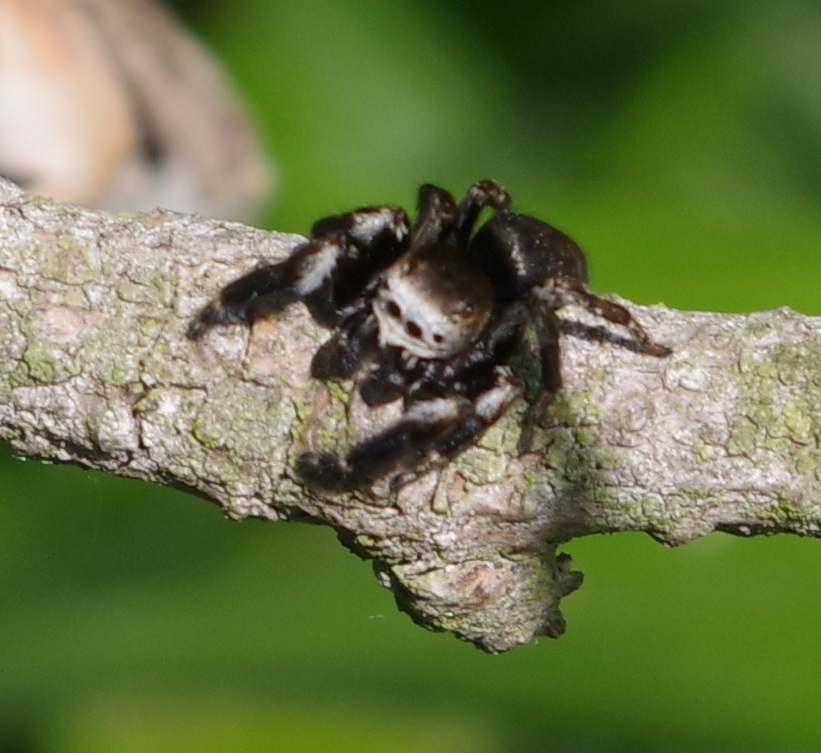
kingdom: Animalia
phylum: Arthropoda
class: Arachnida
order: Araneae
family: Salticidae
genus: Evarcha
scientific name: Evarcha arcuata
